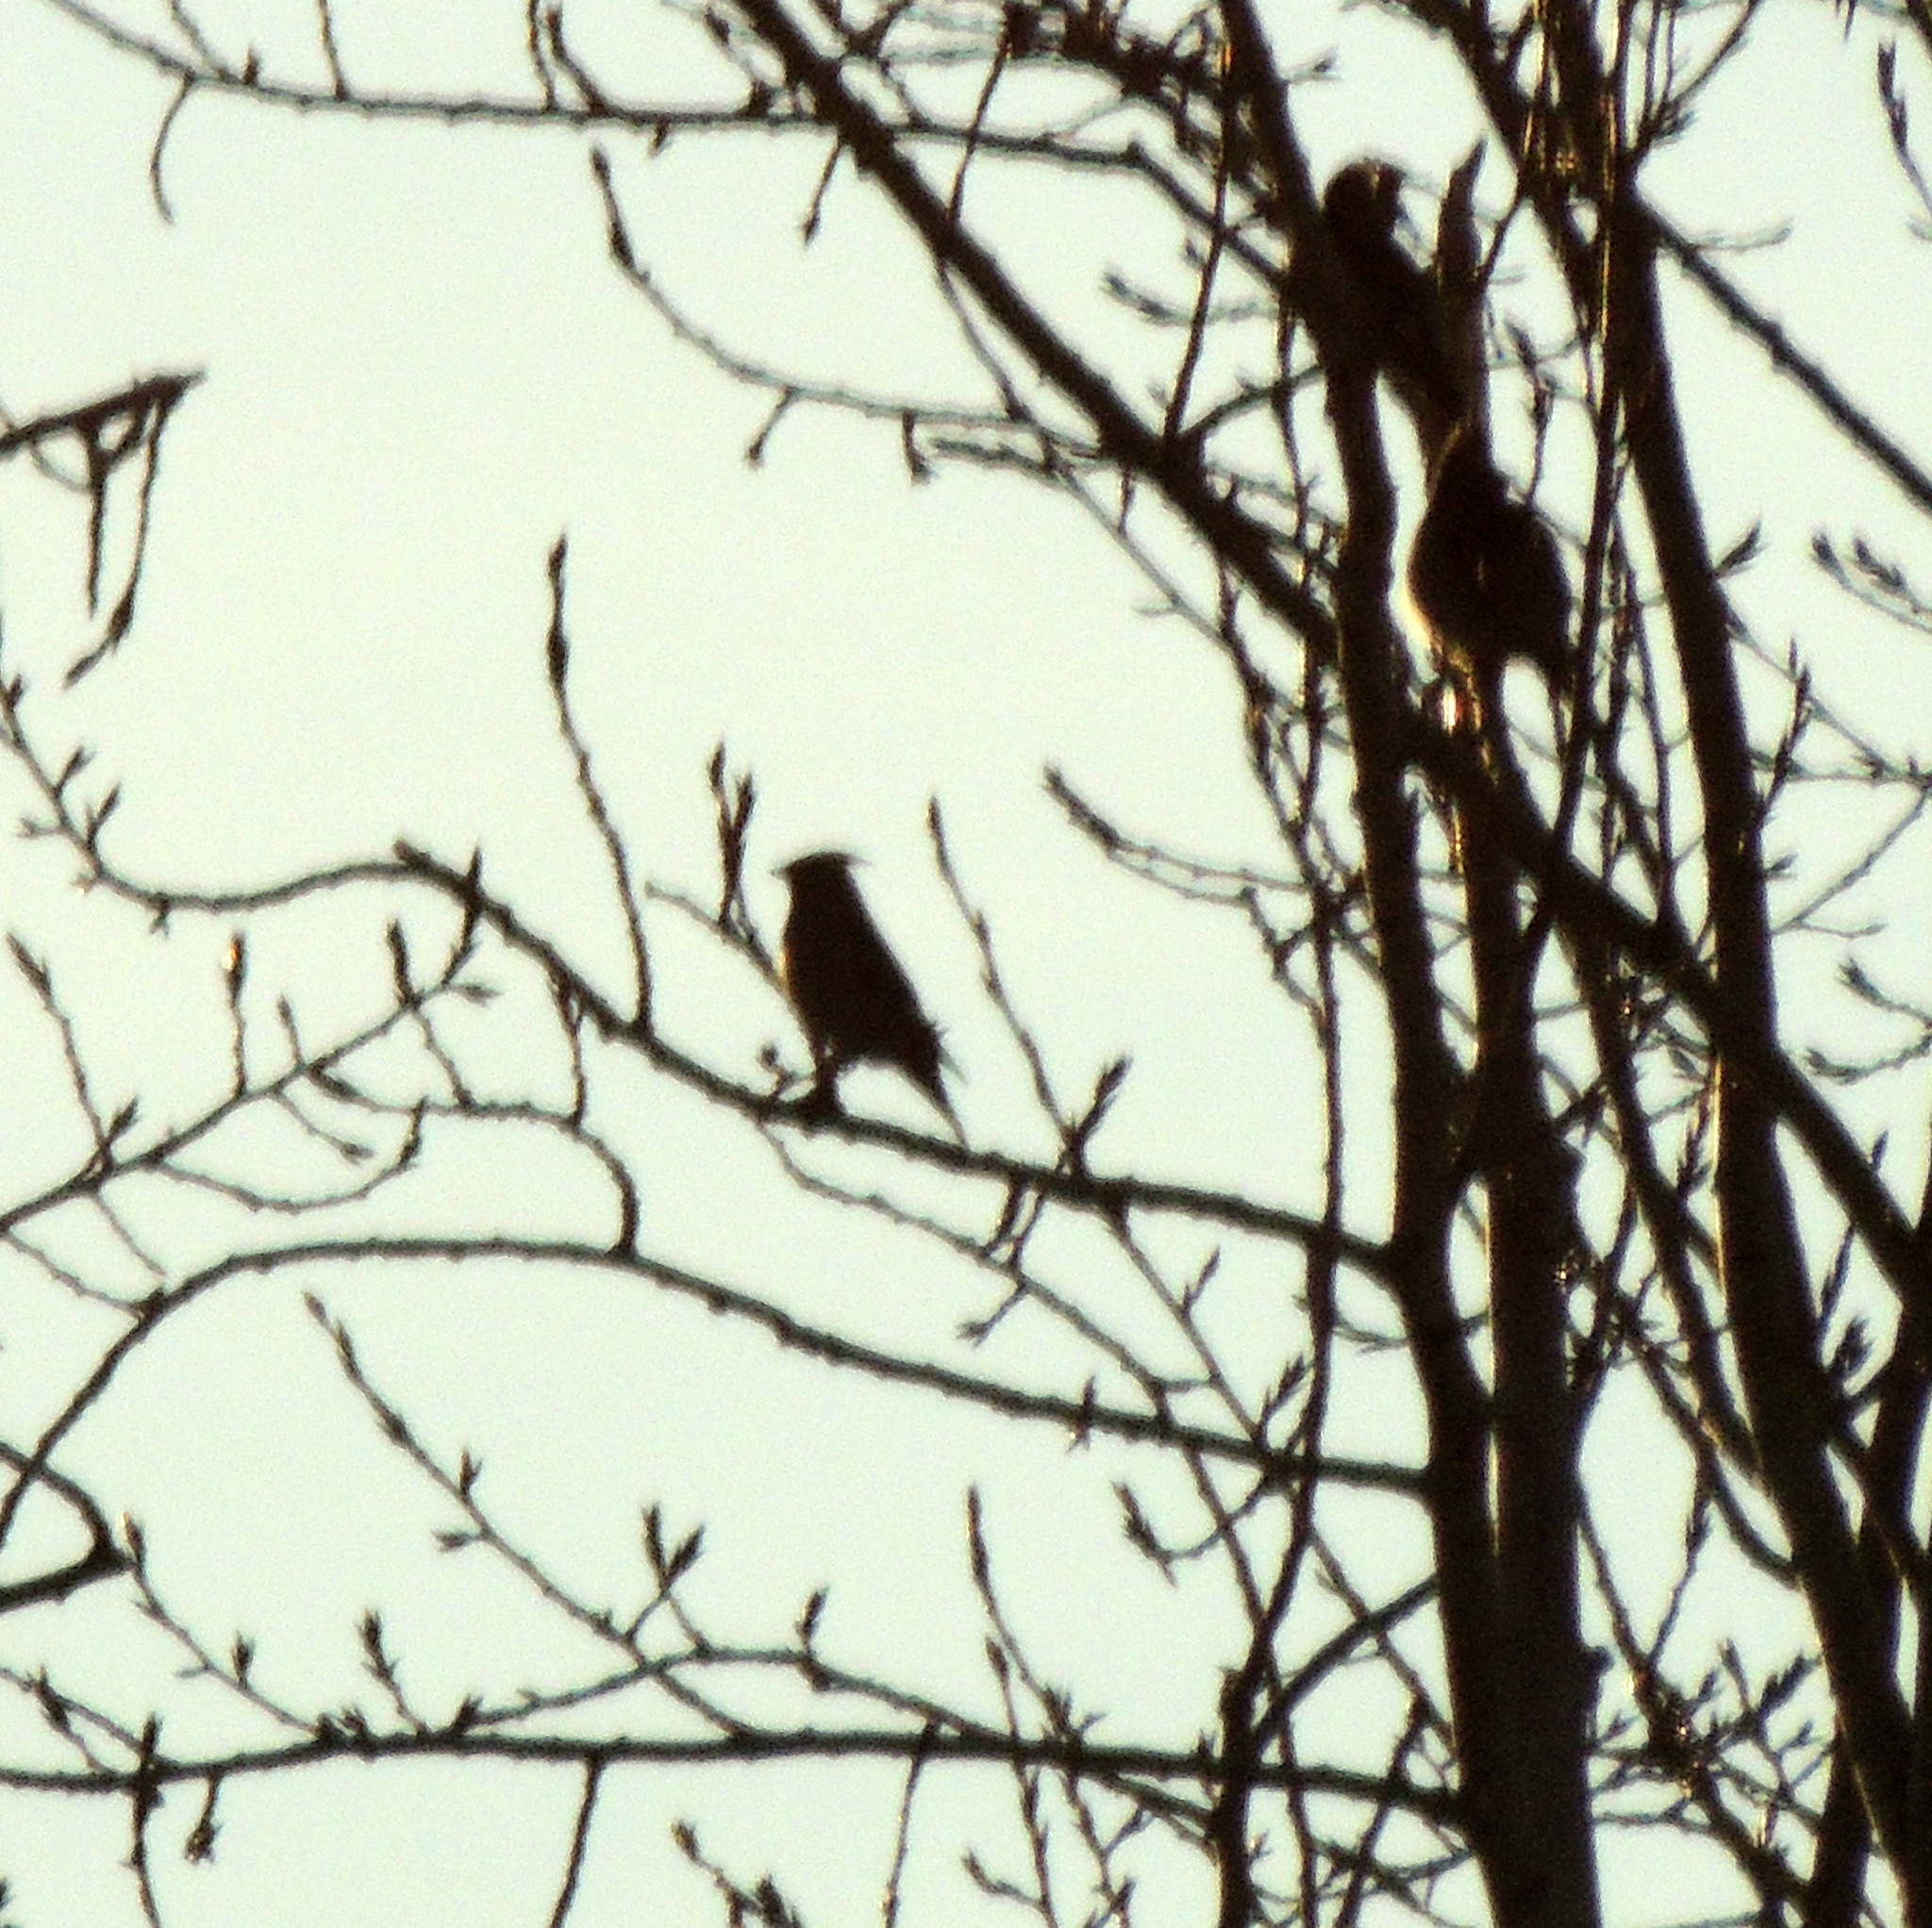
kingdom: Animalia
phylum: Chordata
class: Aves
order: Passeriformes
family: Bombycillidae
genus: Bombycilla
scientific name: Bombycilla garrulus
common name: Bohemian waxwing
